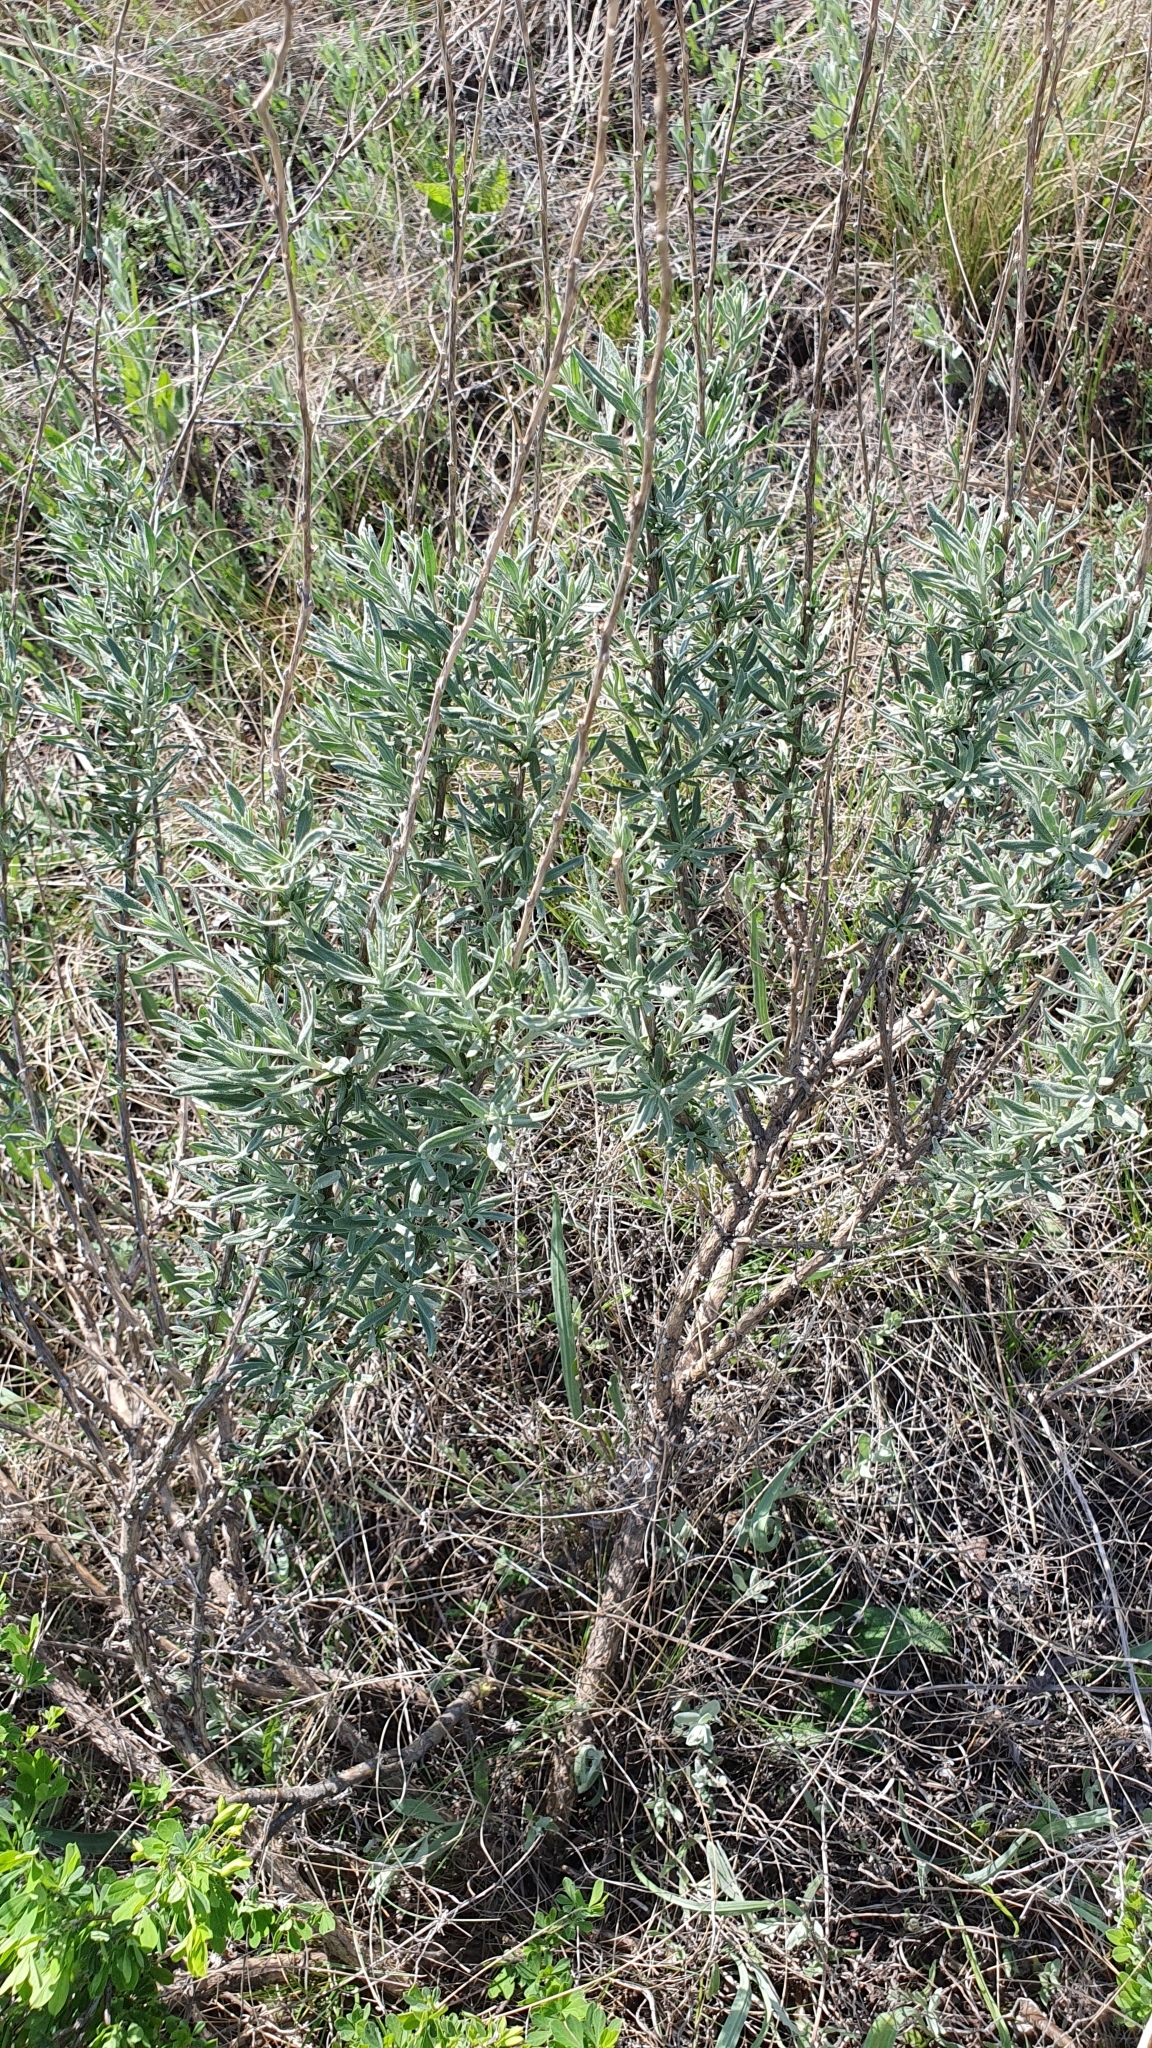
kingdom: Plantae
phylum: Tracheophyta
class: Magnoliopsida
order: Caryophyllales
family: Amaranthaceae
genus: Krascheninnikovia
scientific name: Krascheninnikovia ceratoides
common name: Pamirian winterfat
